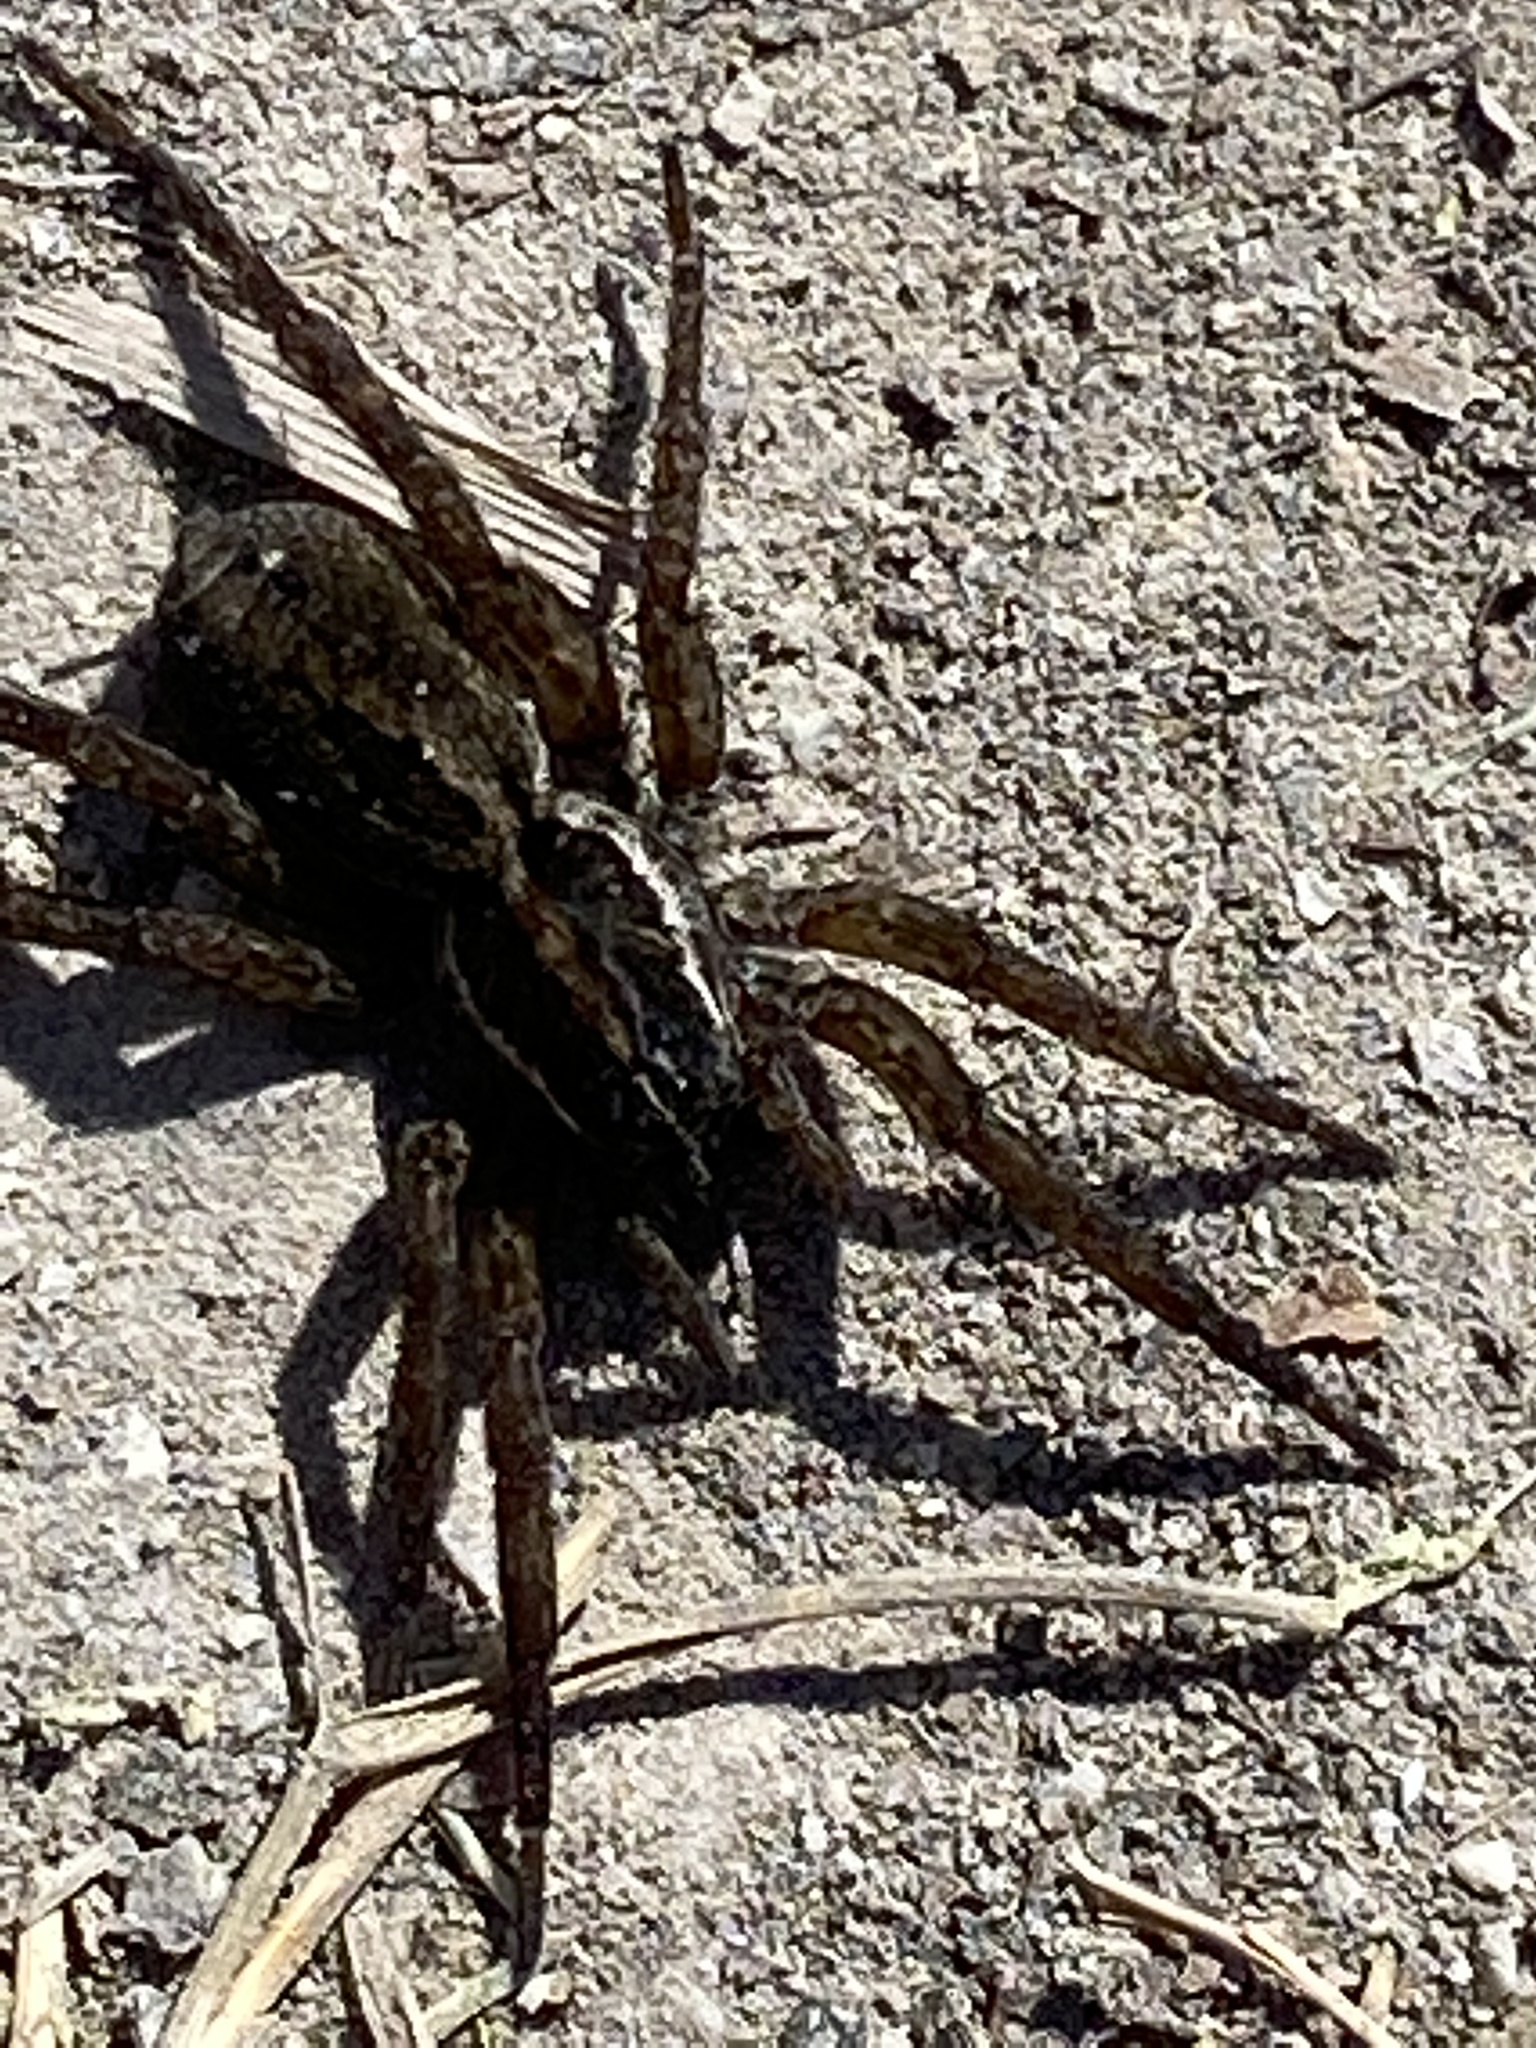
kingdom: Animalia
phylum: Arthropoda
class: Arachnida
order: Araneae
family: Lycosidae
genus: Tigrosa
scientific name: Tigrosa annexa
